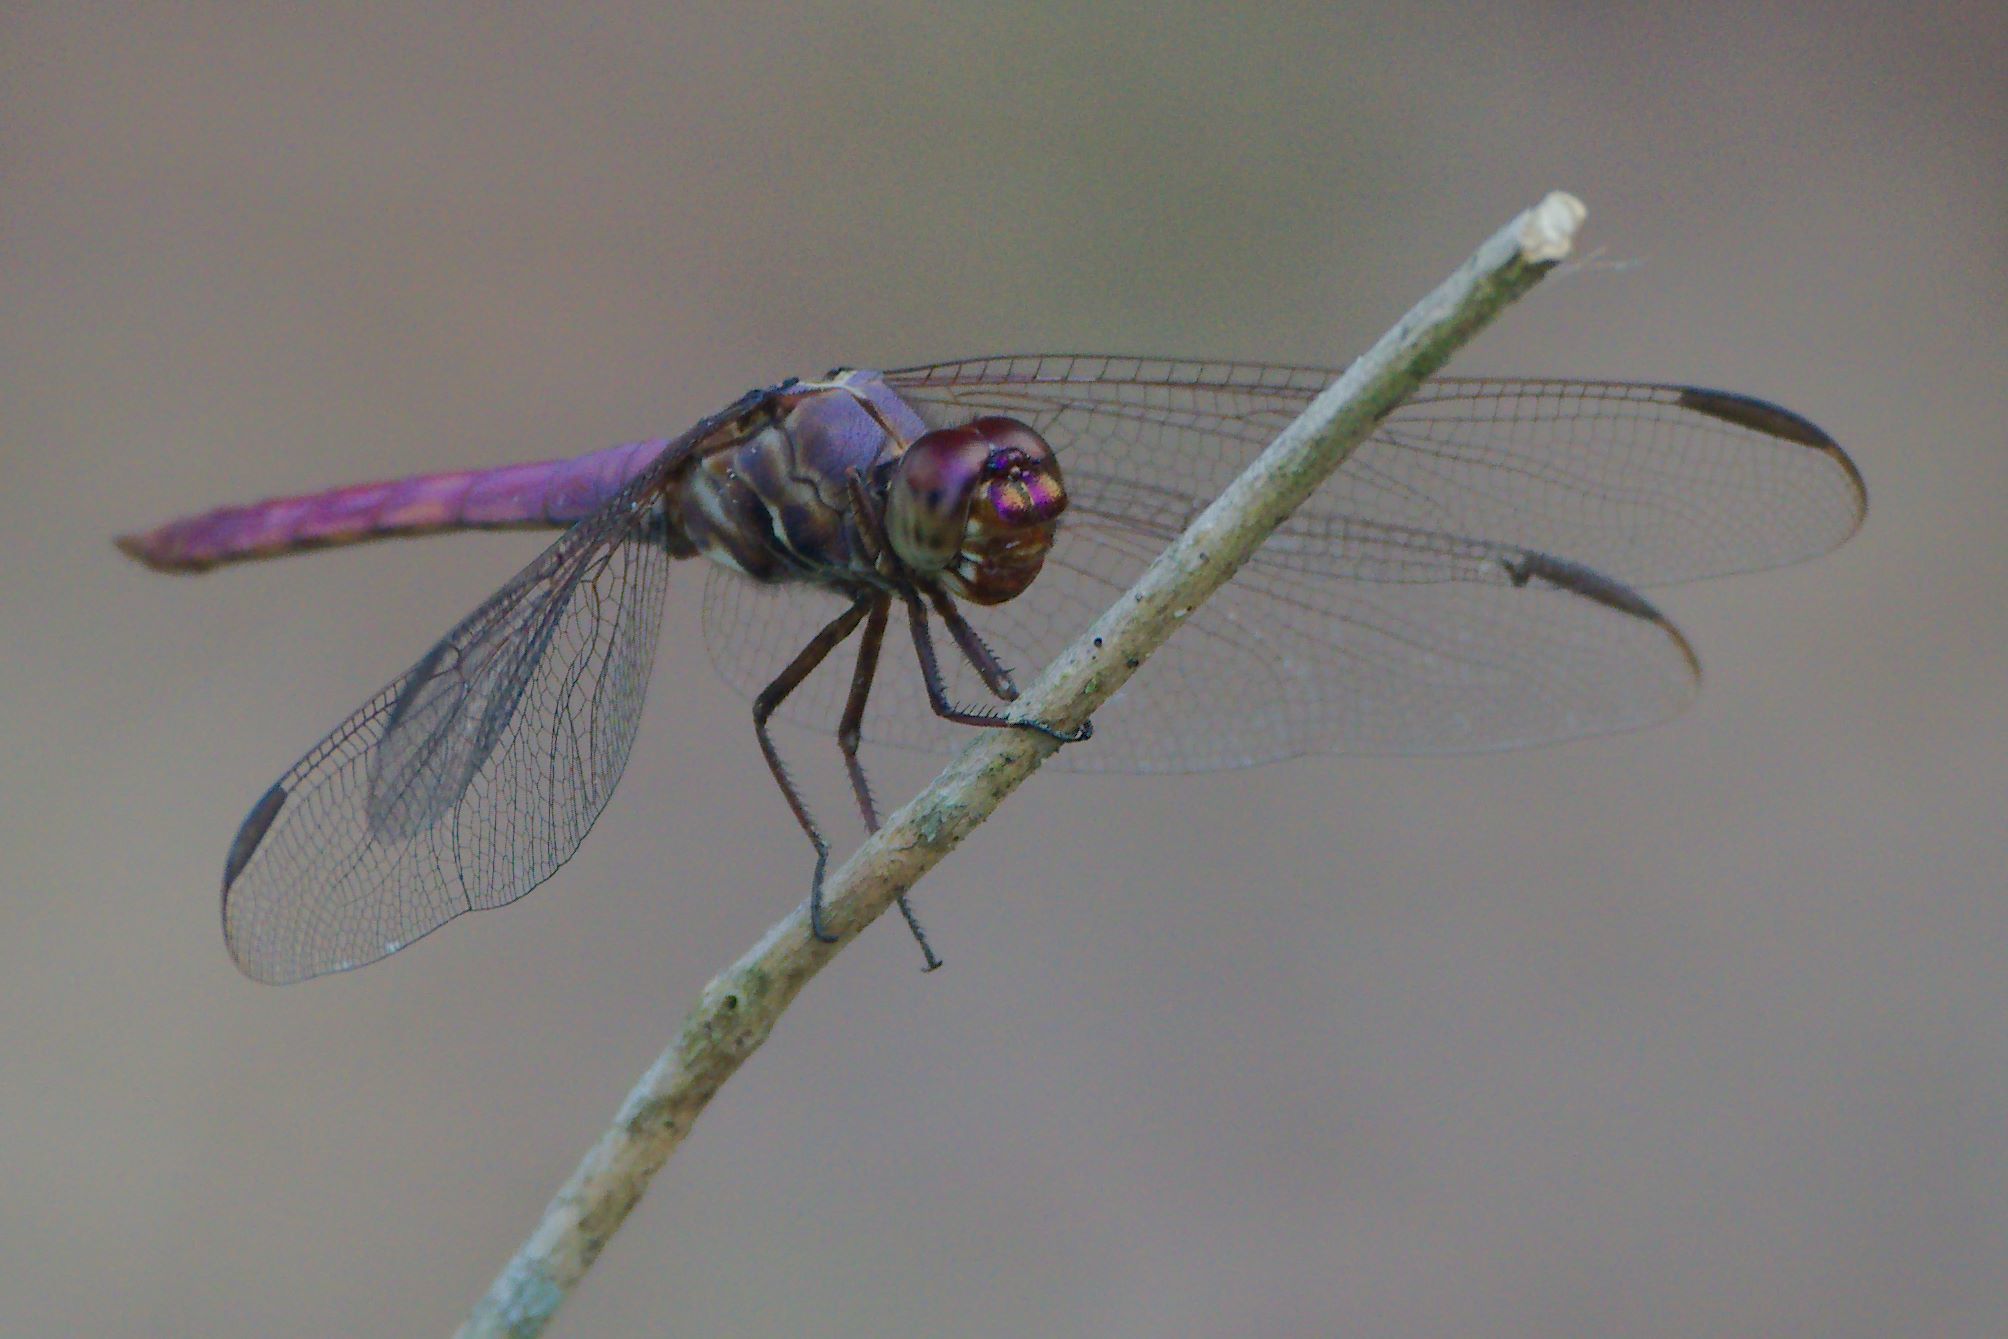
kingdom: Animalia
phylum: Arthropoda
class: Insecta
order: Odonata
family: Libellulidae
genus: Orthemis
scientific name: Orthemis ferruginea
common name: Roseate skimmer
